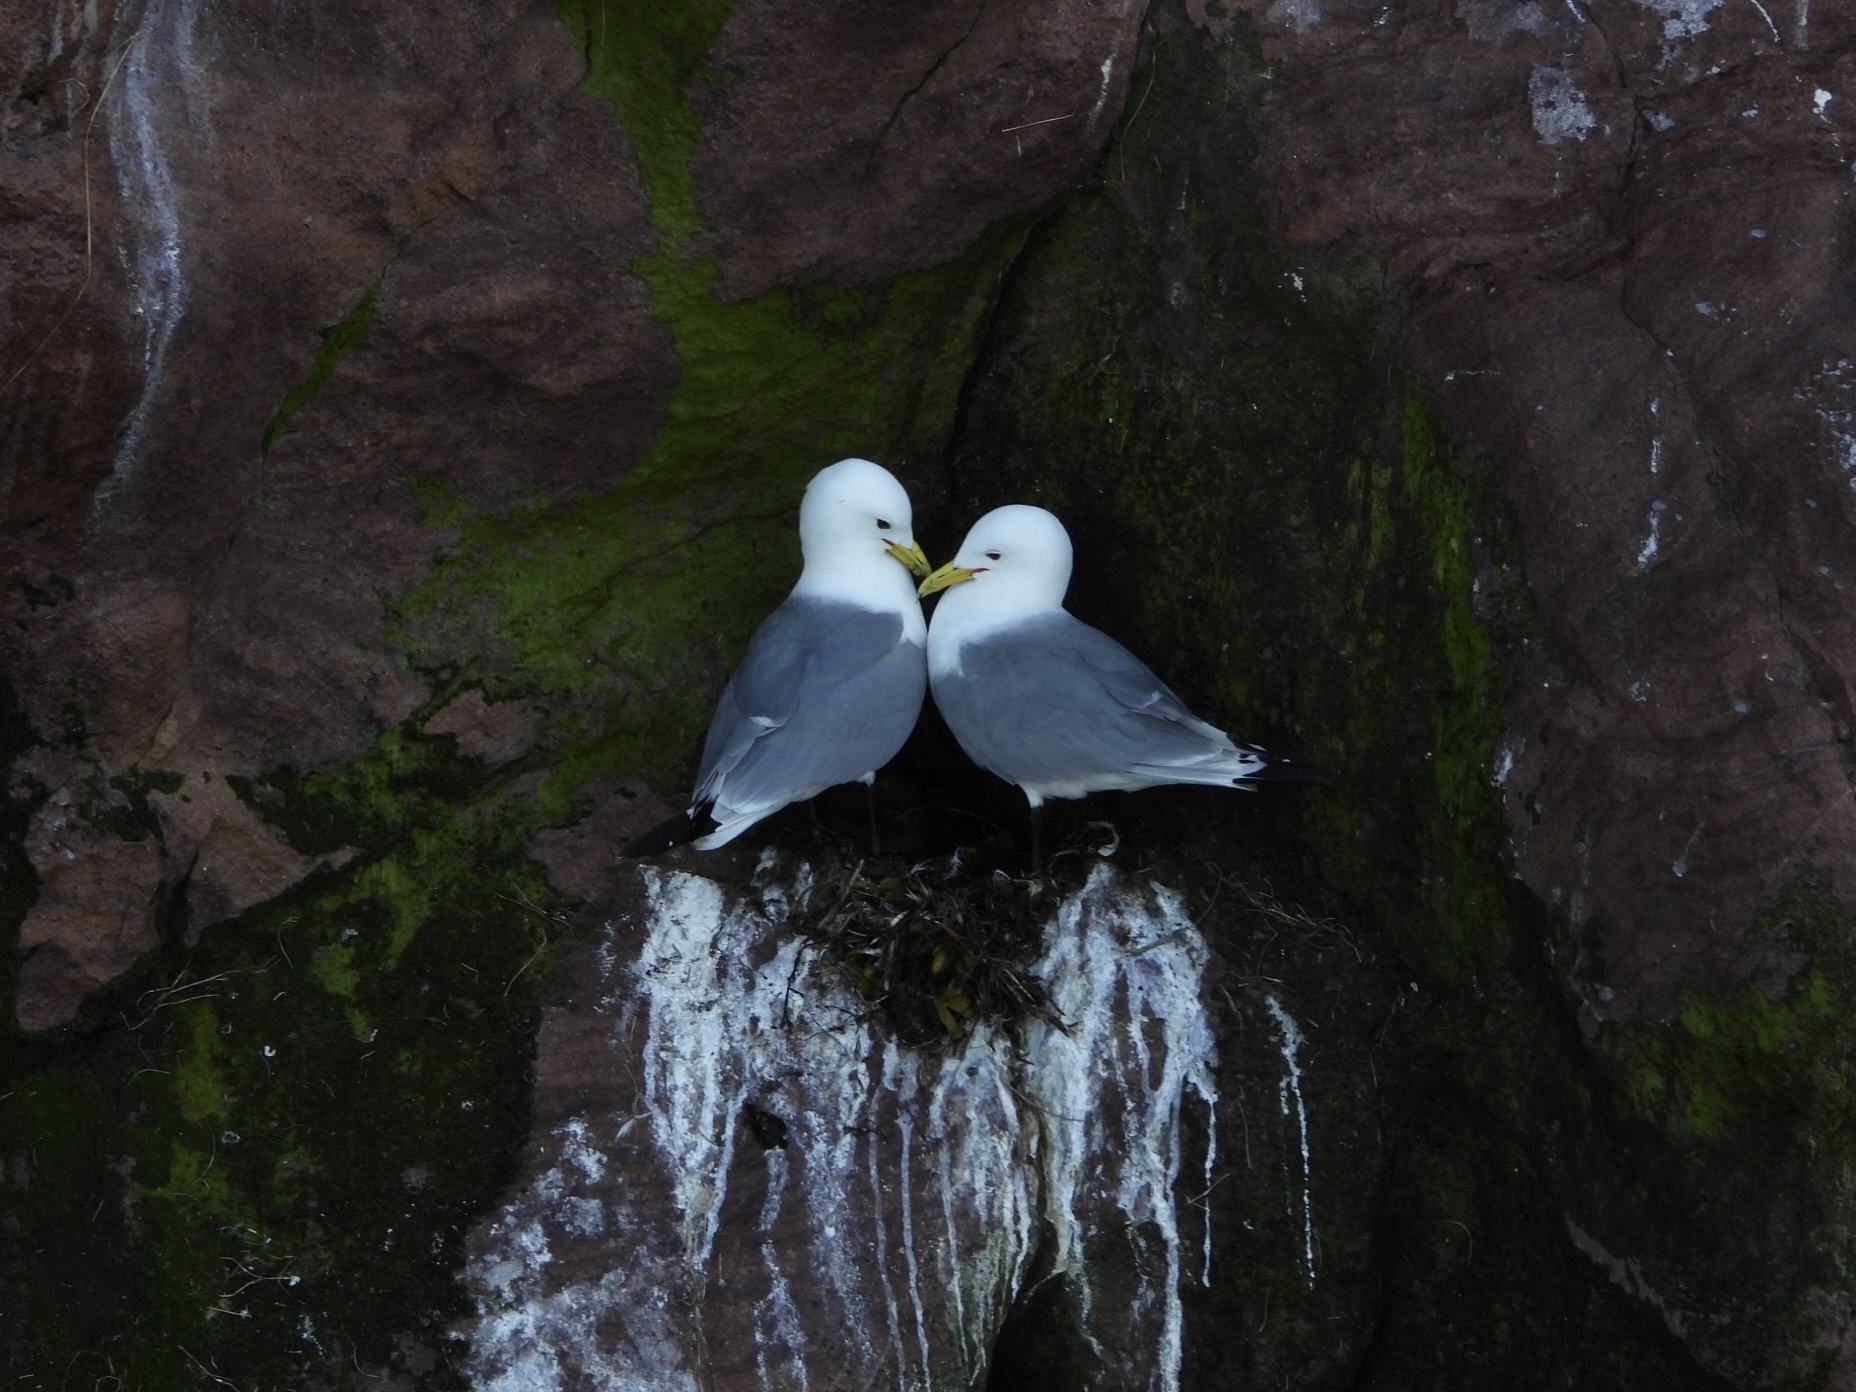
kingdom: Animalia
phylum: Chordata
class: Aves
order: Charadriiformes
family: Laridae
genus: Rissa
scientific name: Rissa tridactyla
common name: Black-legged kittiwake
